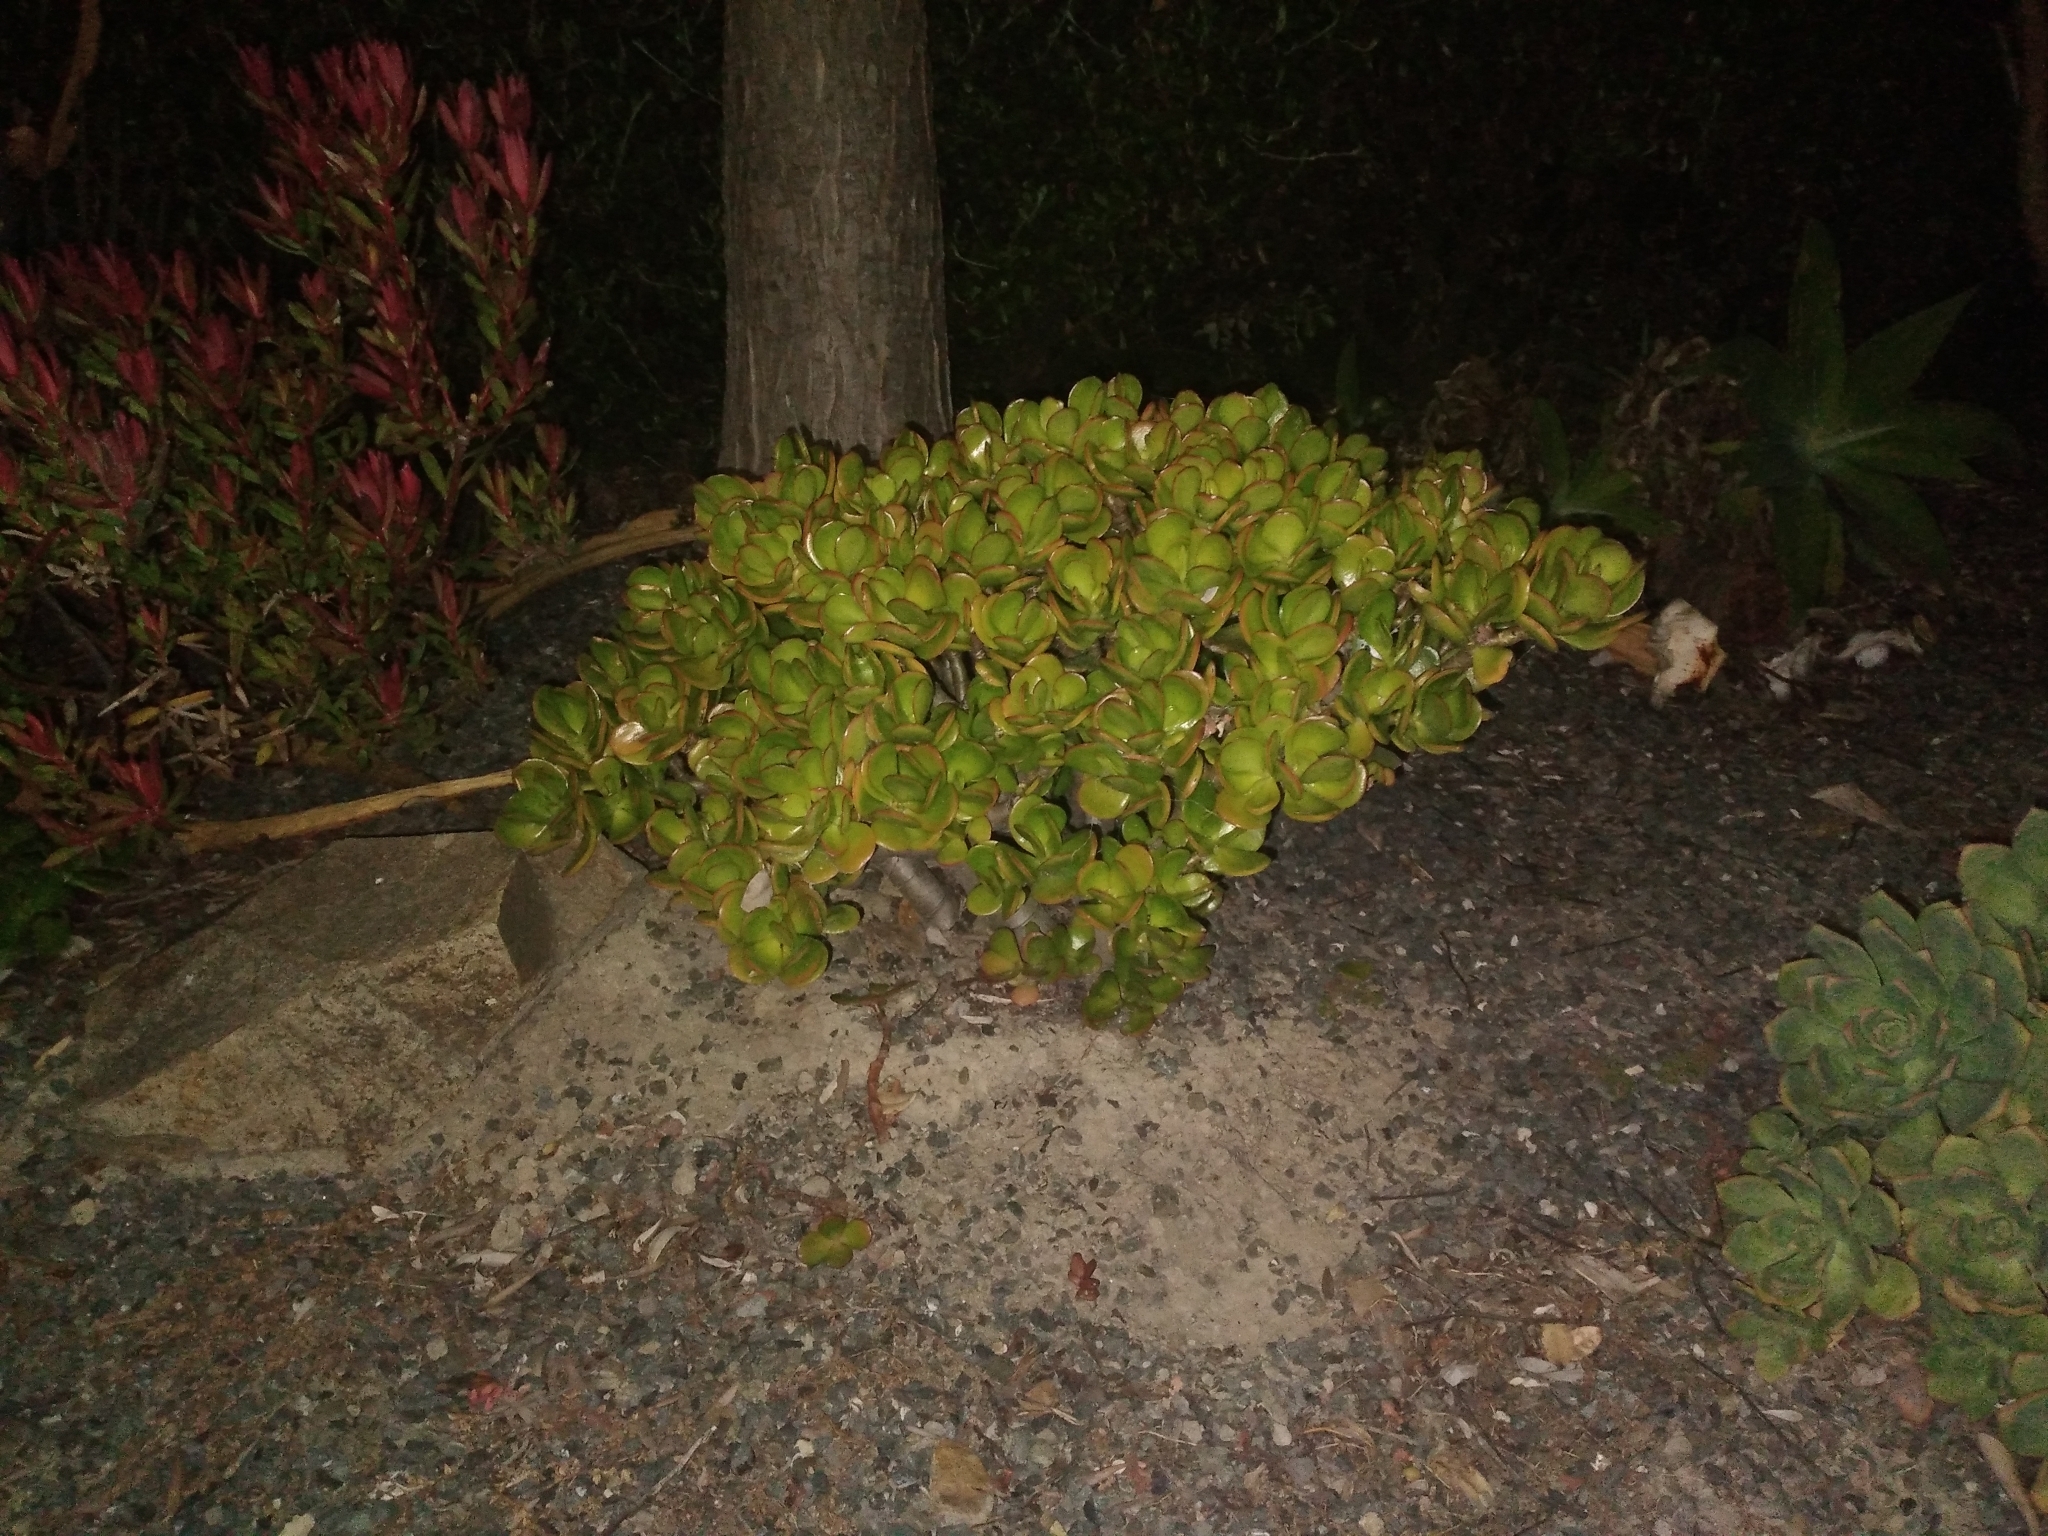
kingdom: Plantae
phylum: Tracheophyta
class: Magnoliopsida
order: Saxifragales
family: Crassulaceae
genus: Crassula
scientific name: Crassula ovata
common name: Jade plant
